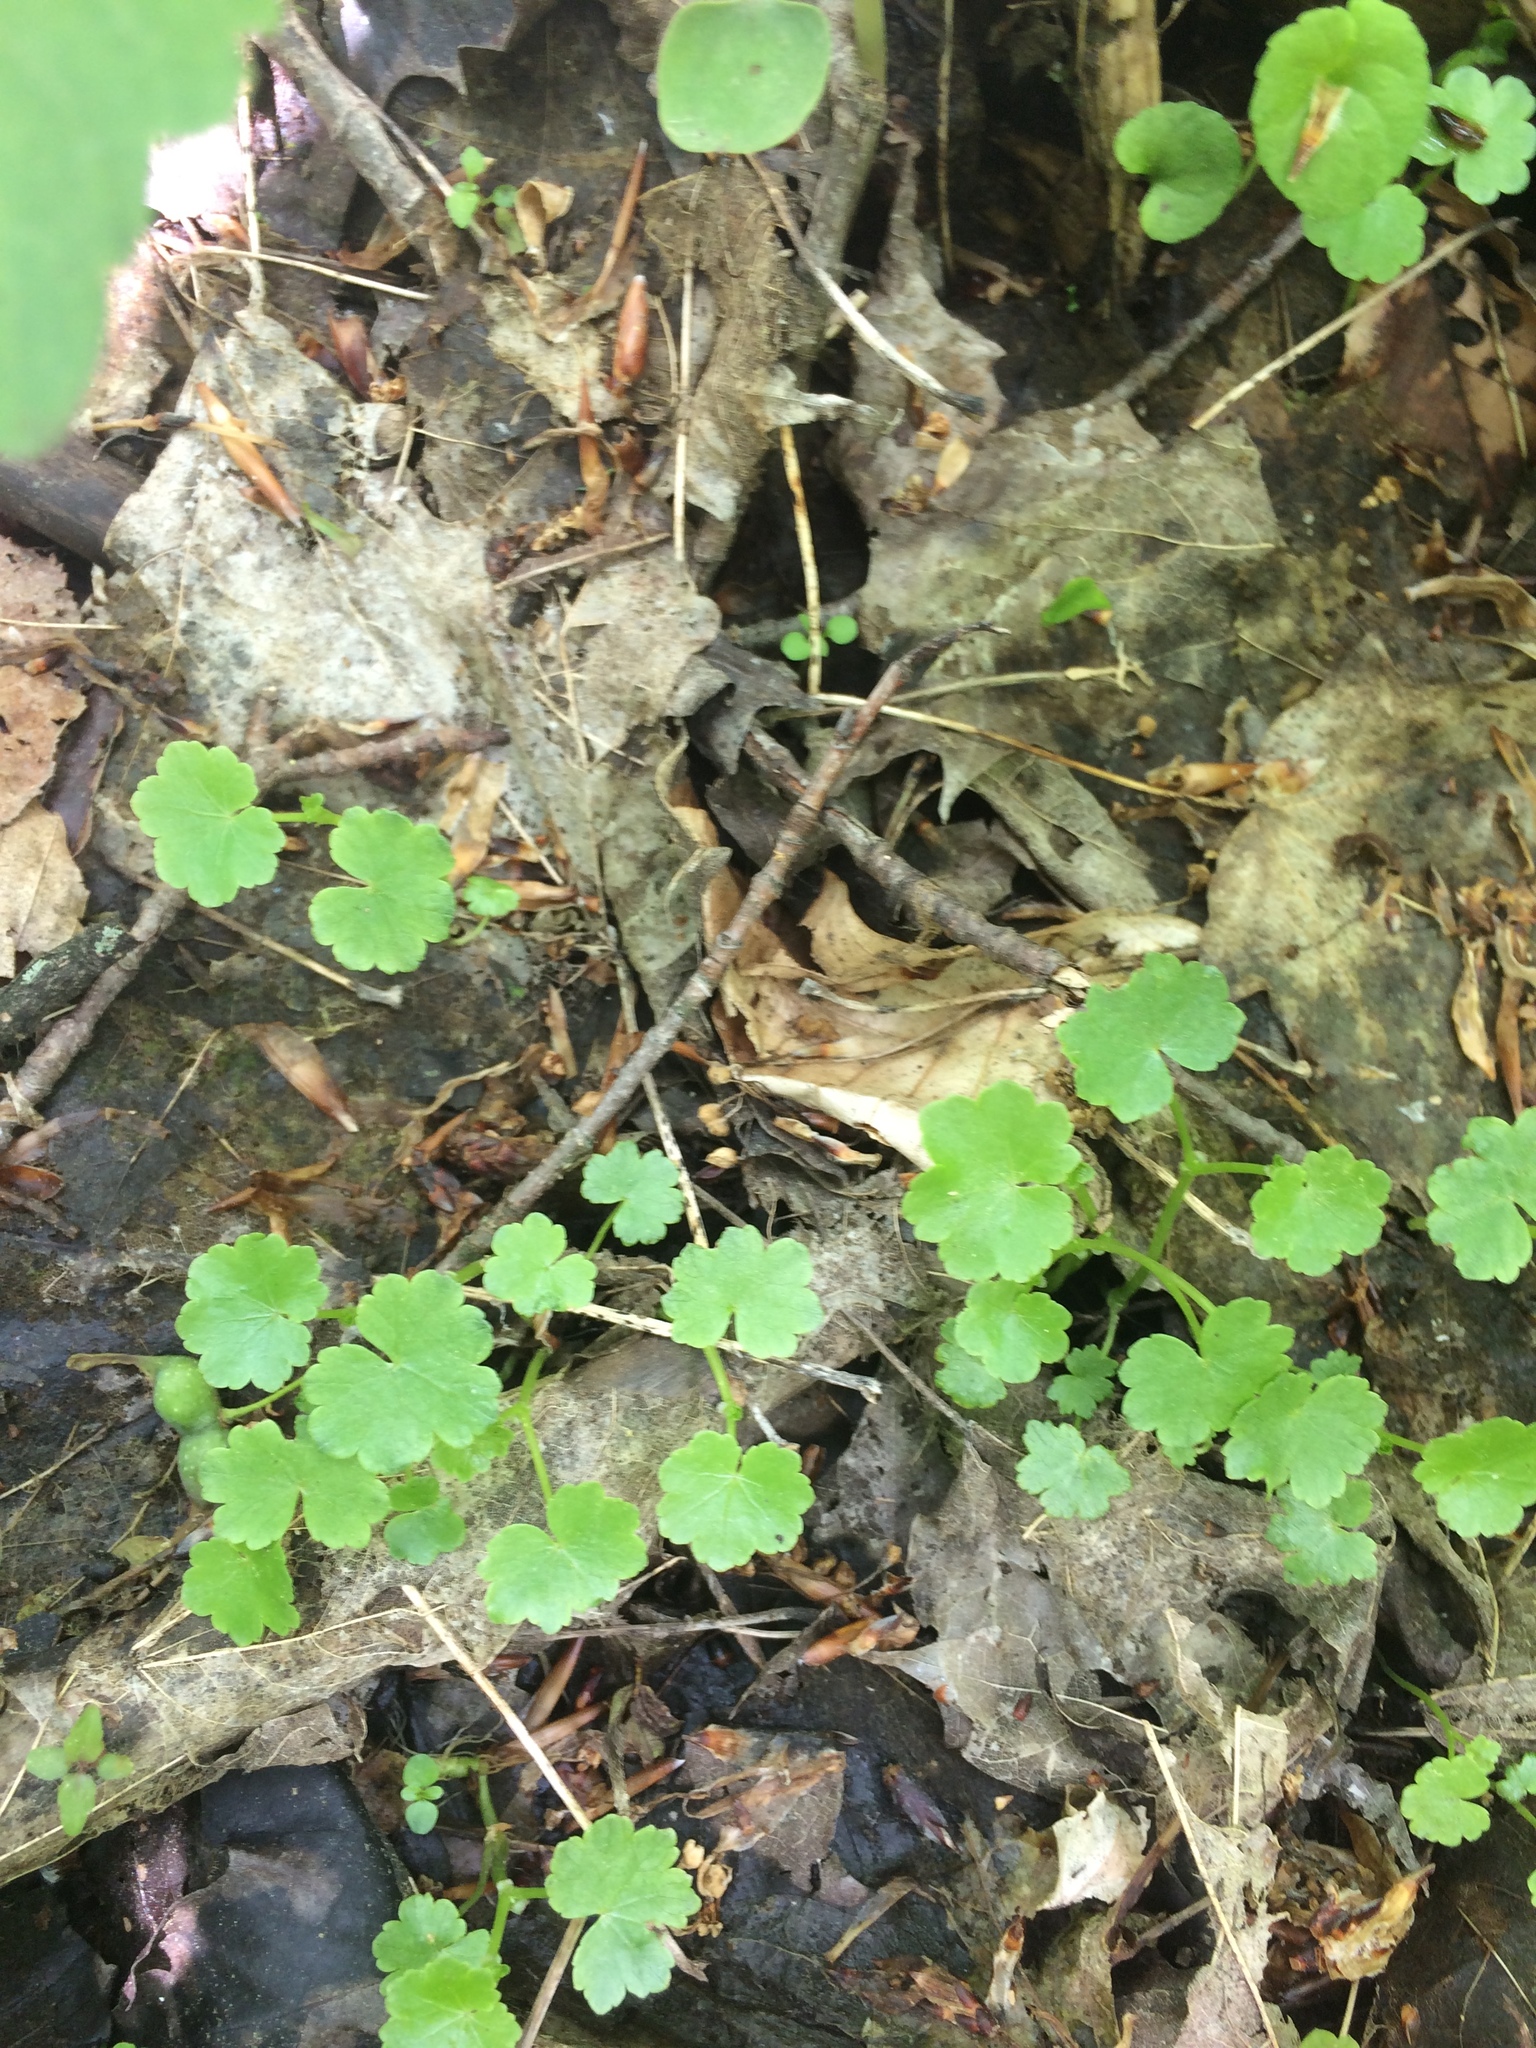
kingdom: Plantae
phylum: Tracheophyta
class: Magnoliopsida
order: Apiales
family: Araliaceae
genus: Hydrocotyle
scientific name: Hydrocotyle americana
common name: American water-pennywort
